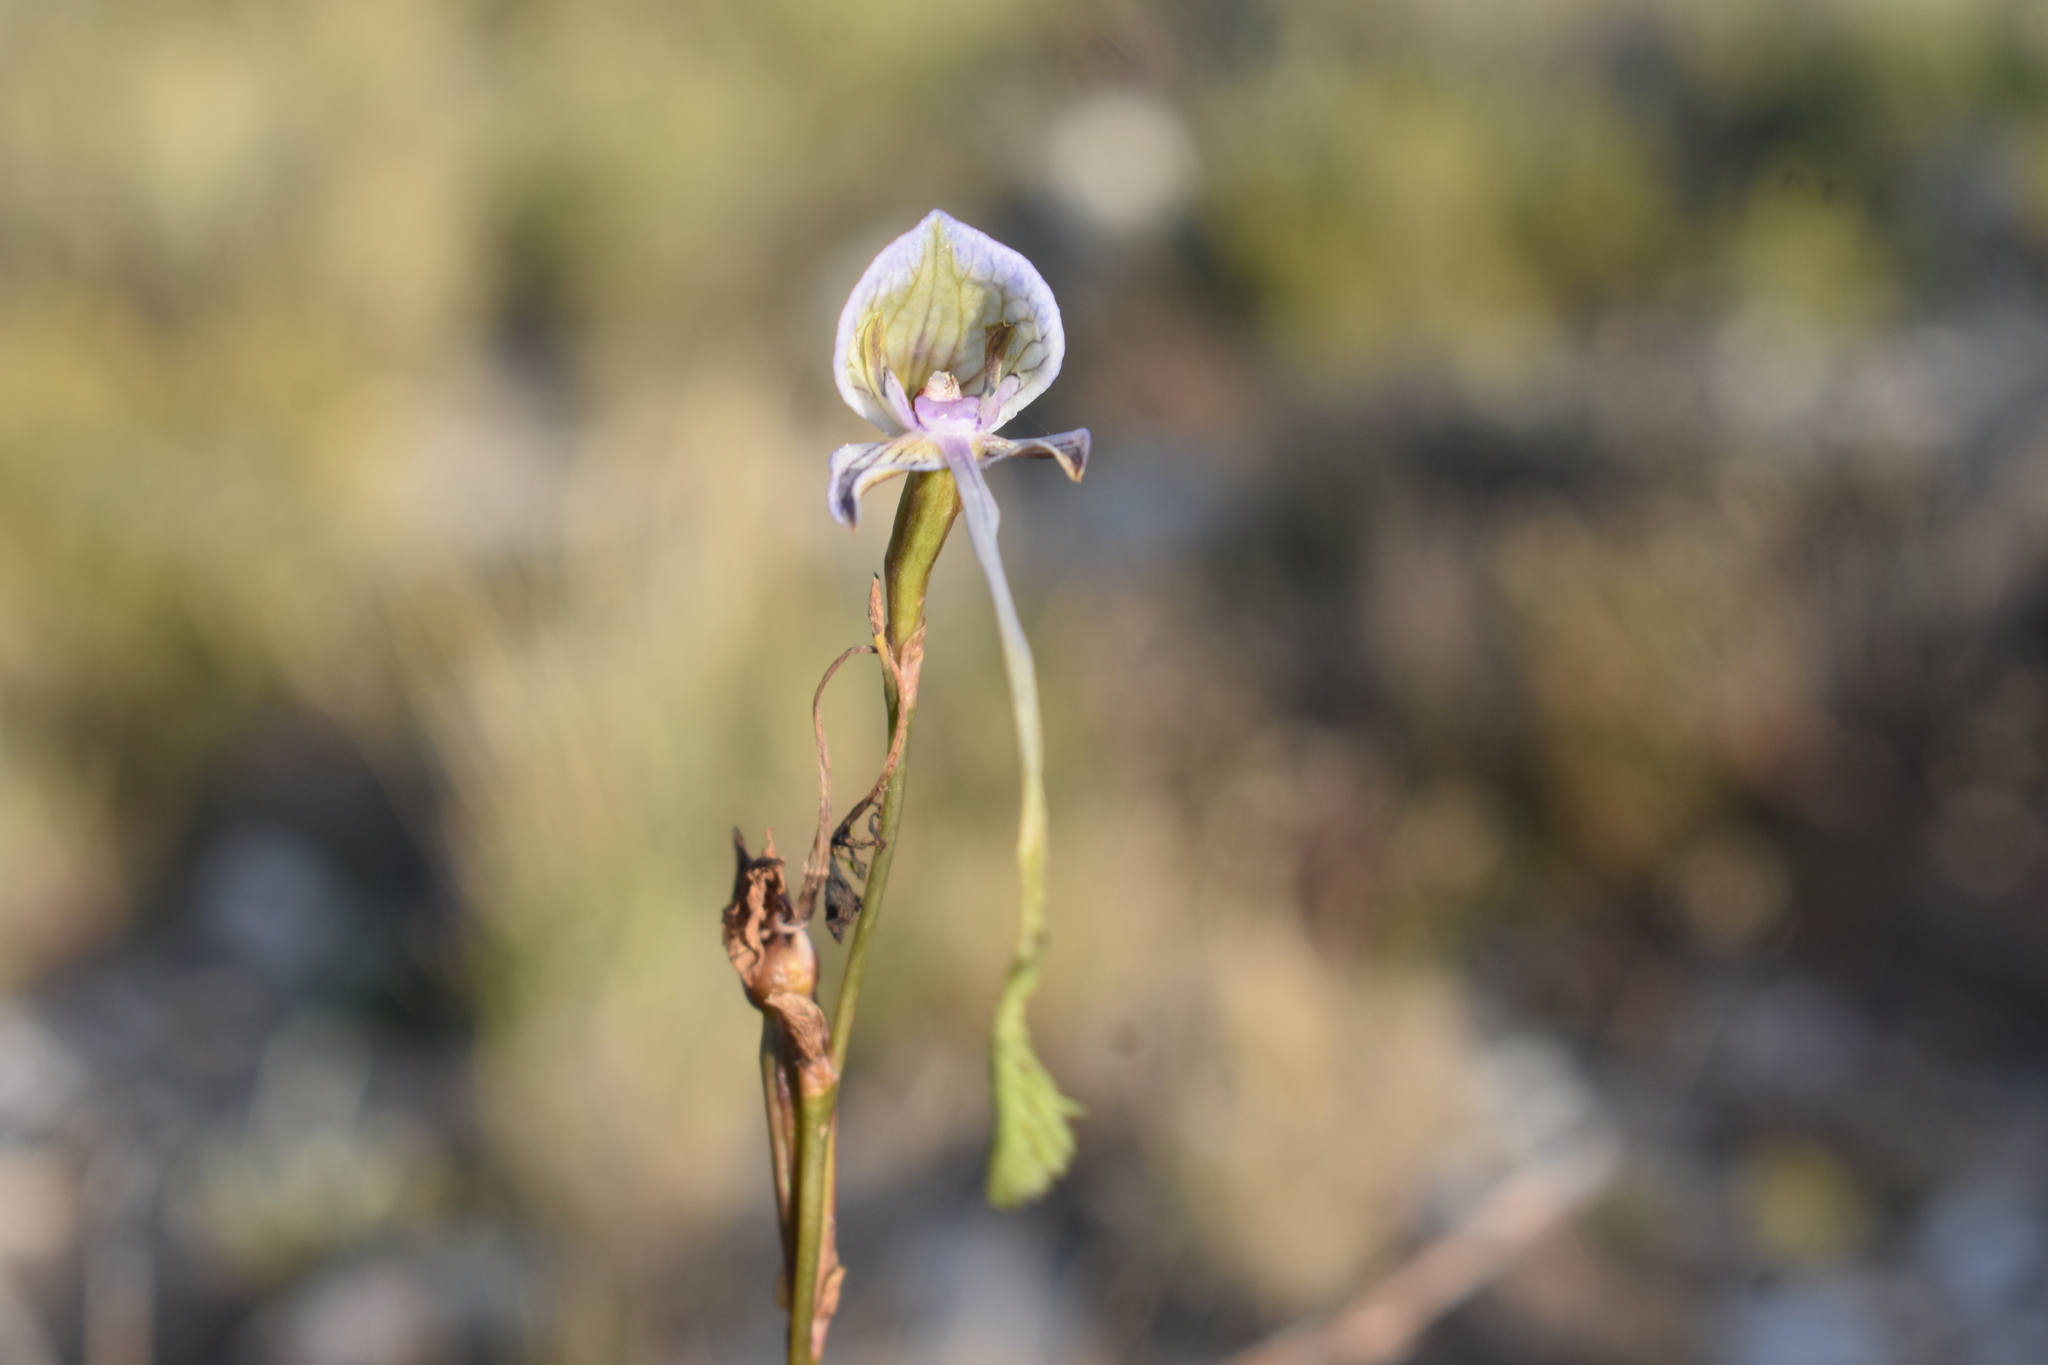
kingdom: Plantae
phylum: Tracheophyta
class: Liliopsida
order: Asparagales
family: Orchidaceae
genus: Disa
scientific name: Disa multifida
